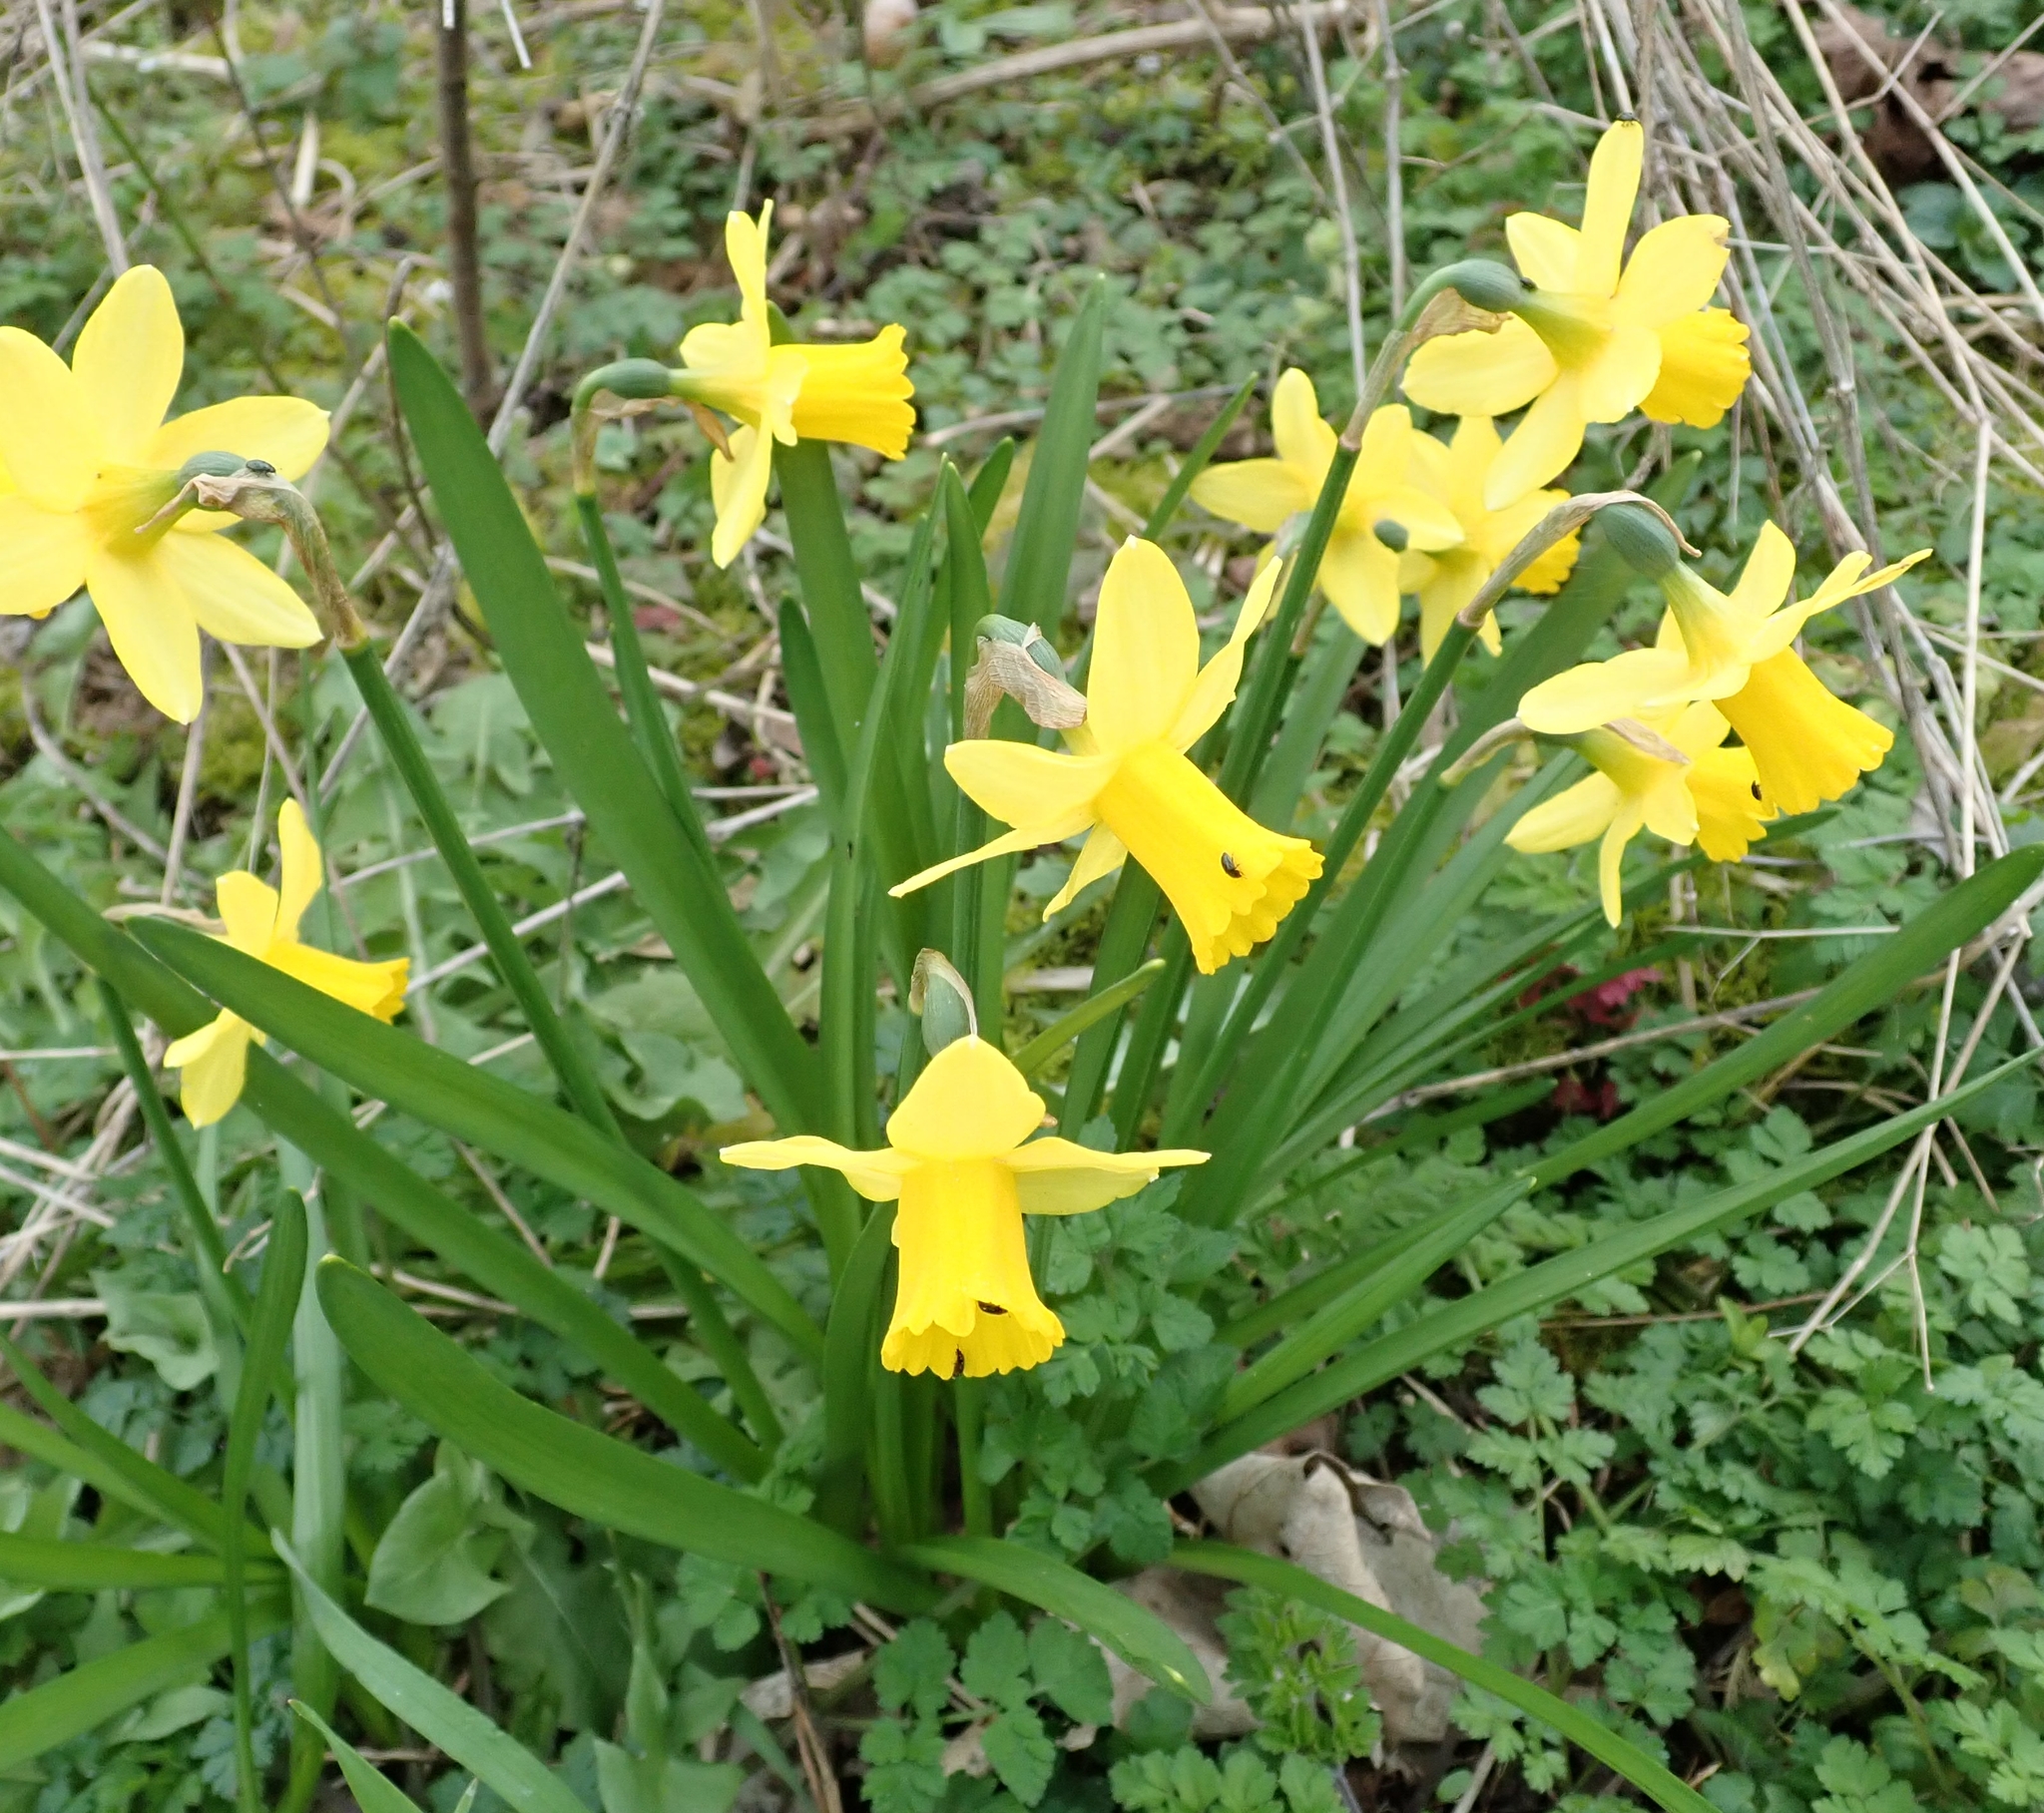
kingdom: Plantae
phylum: Tracheophyta
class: Liliopsida
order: Asparagales
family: Amaryllidaceae
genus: Narcissus
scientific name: Narcissus pseudonarcissus
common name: Daffodil
